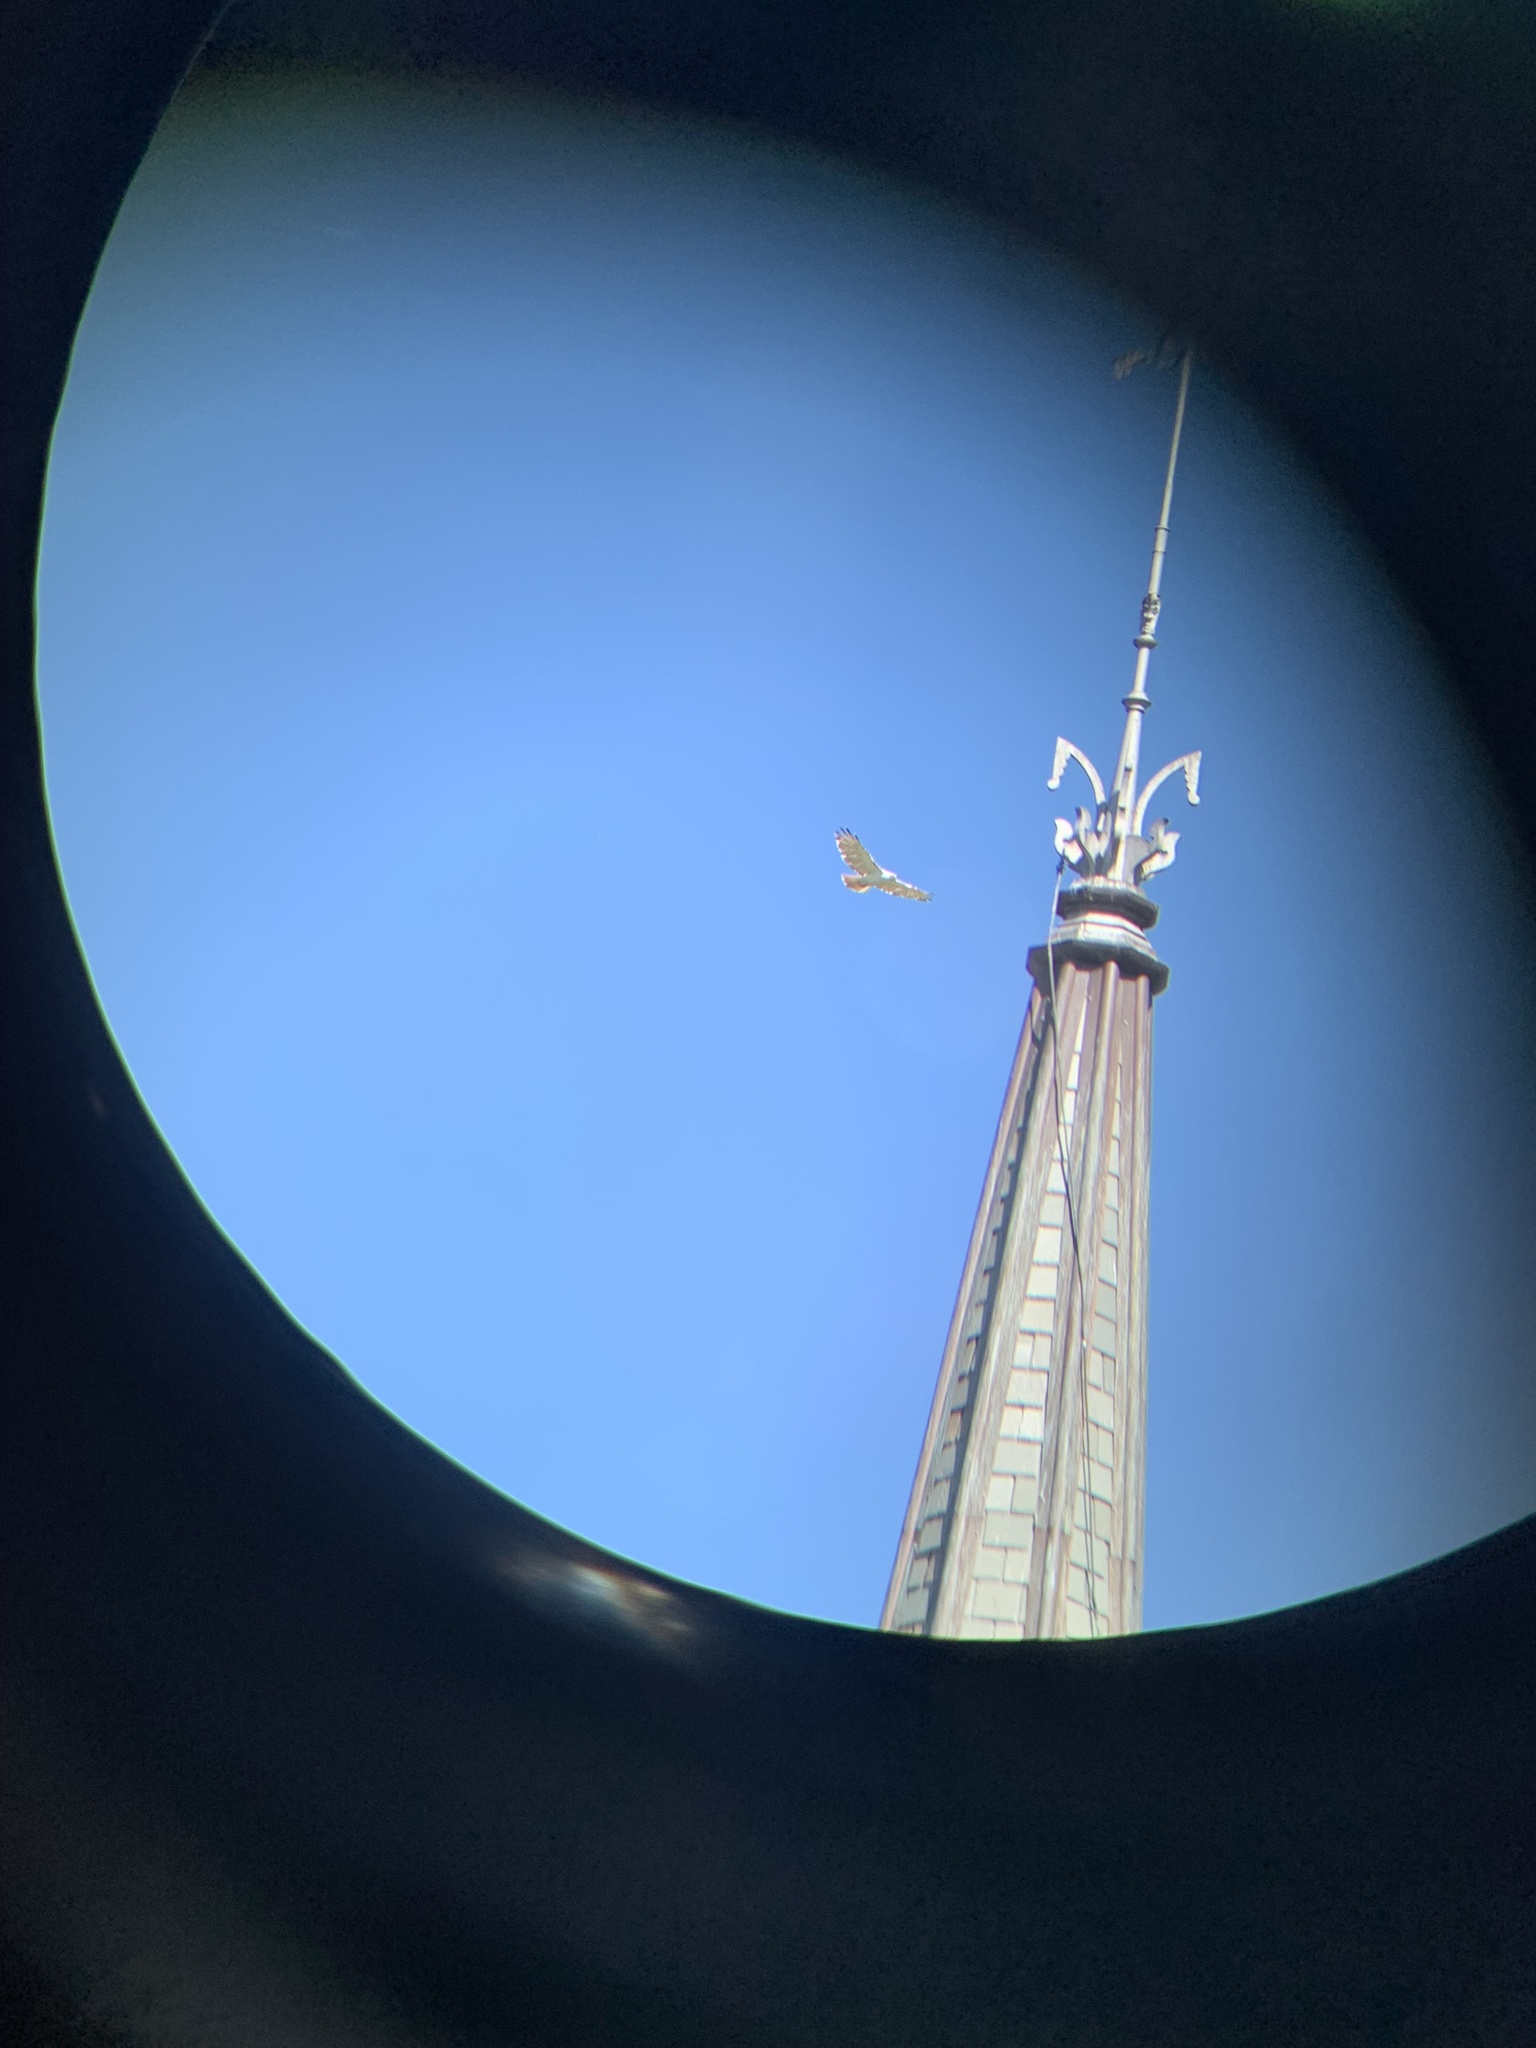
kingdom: Animalia
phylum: Chordata
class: Aves
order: Accipitriformes
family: Accipitridae
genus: Buteo
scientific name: Buteo jamaicensis
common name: Red-tailed hawk
